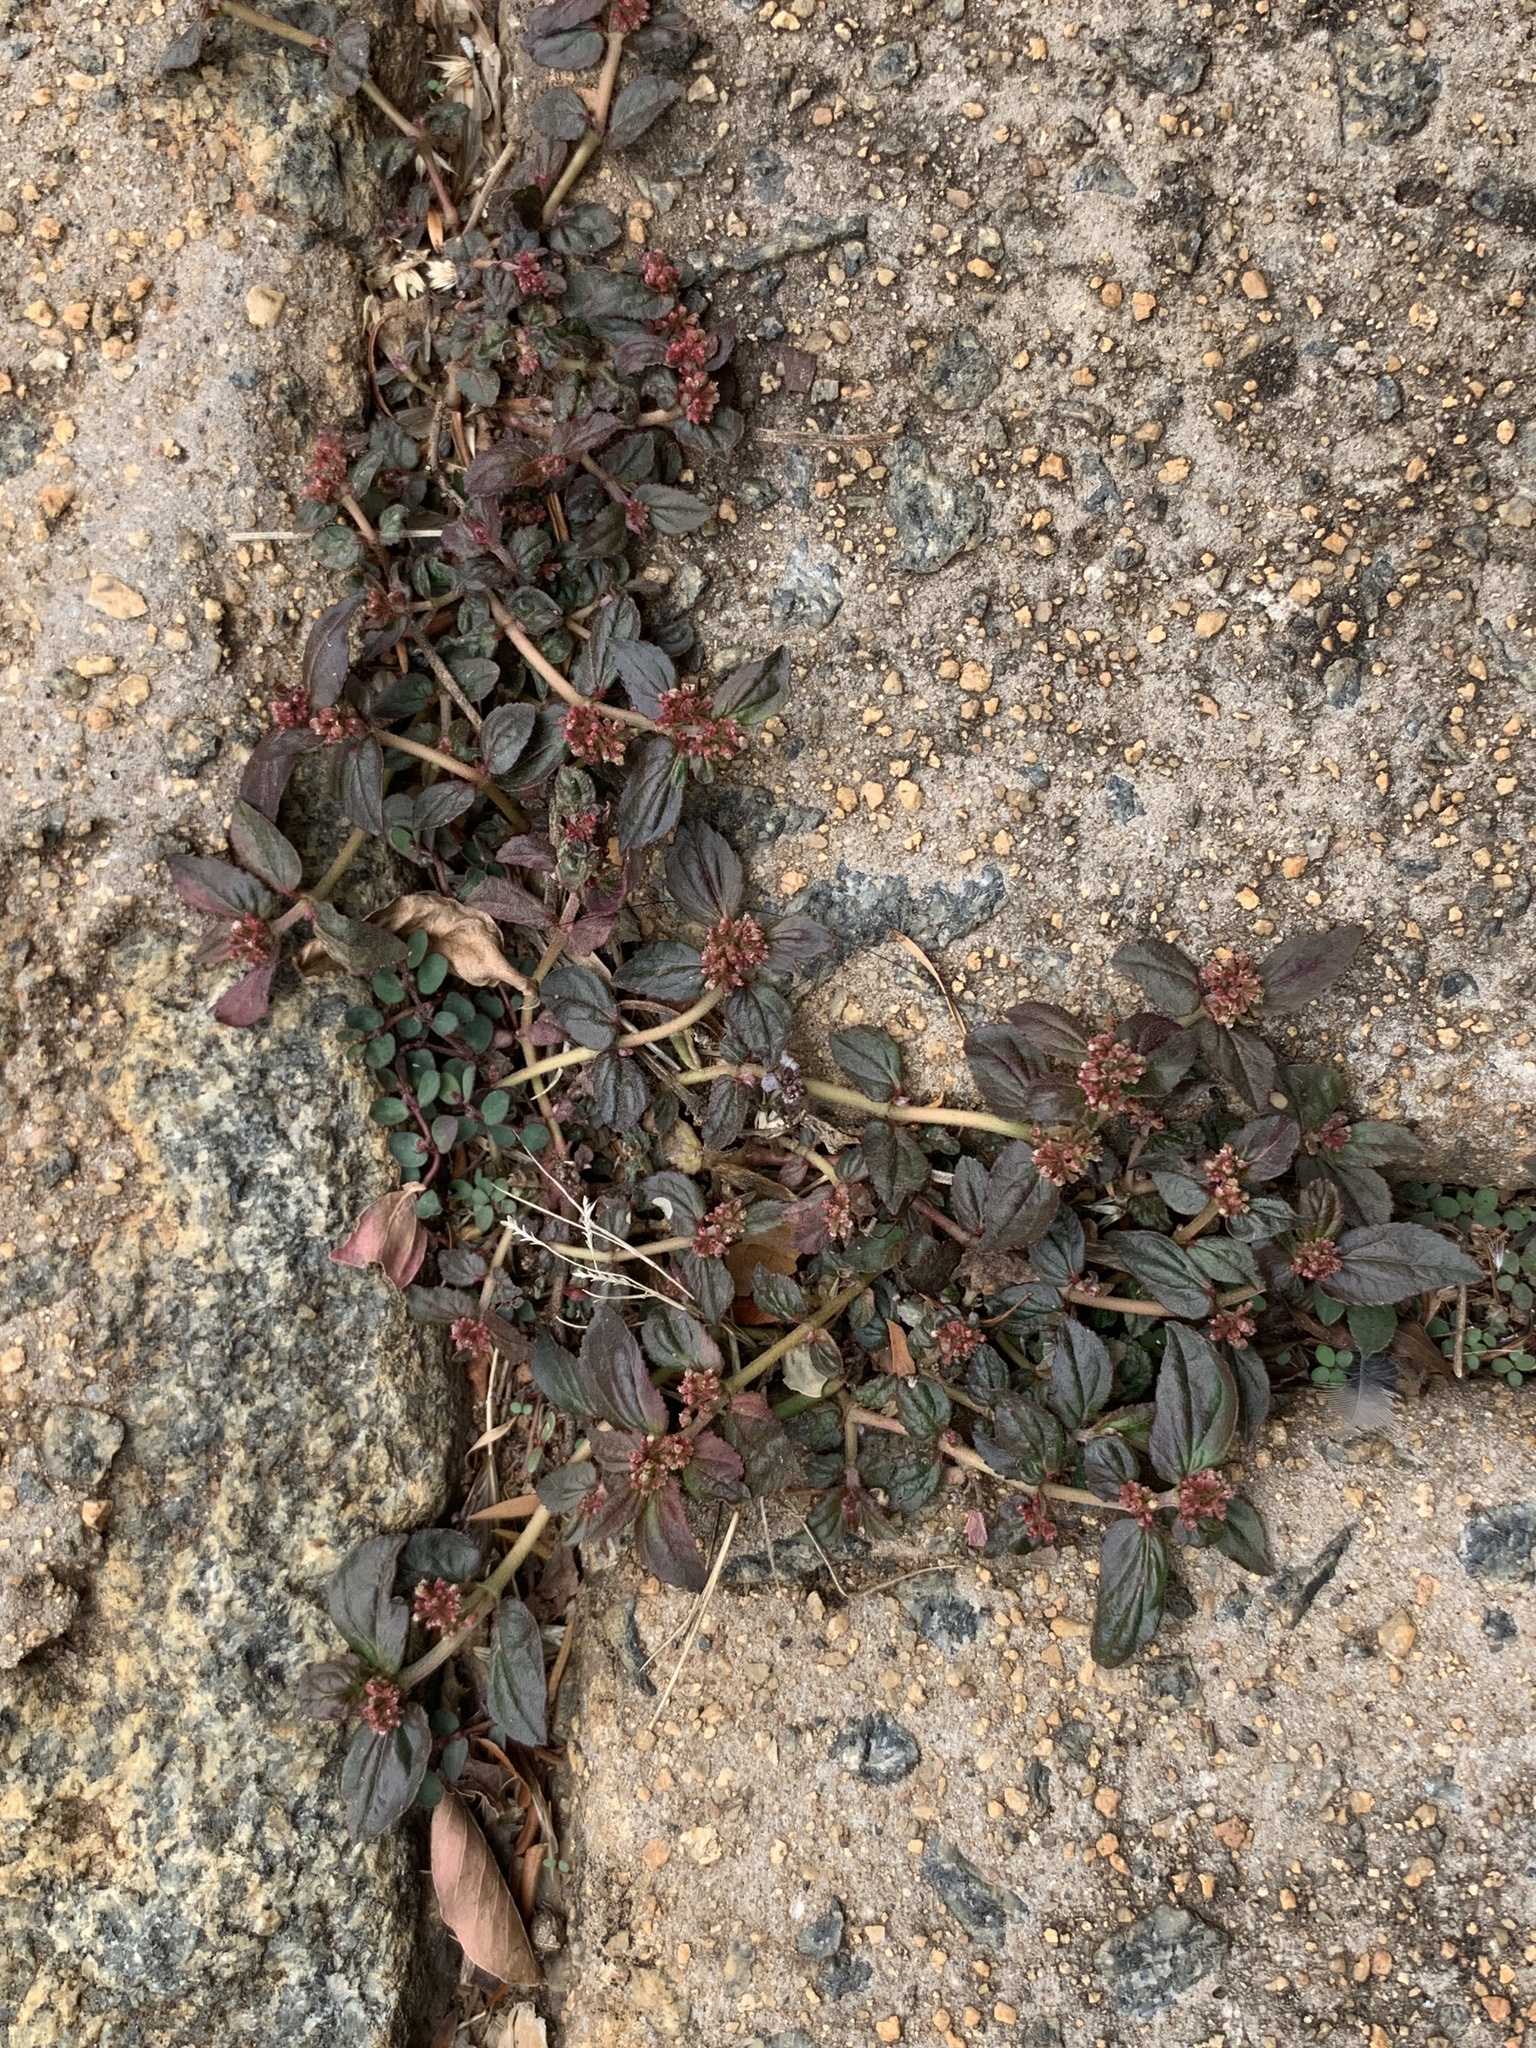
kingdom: Plantae
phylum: Tracheophyta
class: Magnoliopsida
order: Malpighiales
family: Euphorbiaceae
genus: Euphorbia
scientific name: Euphorbia hirta
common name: Pillpod sandmat
